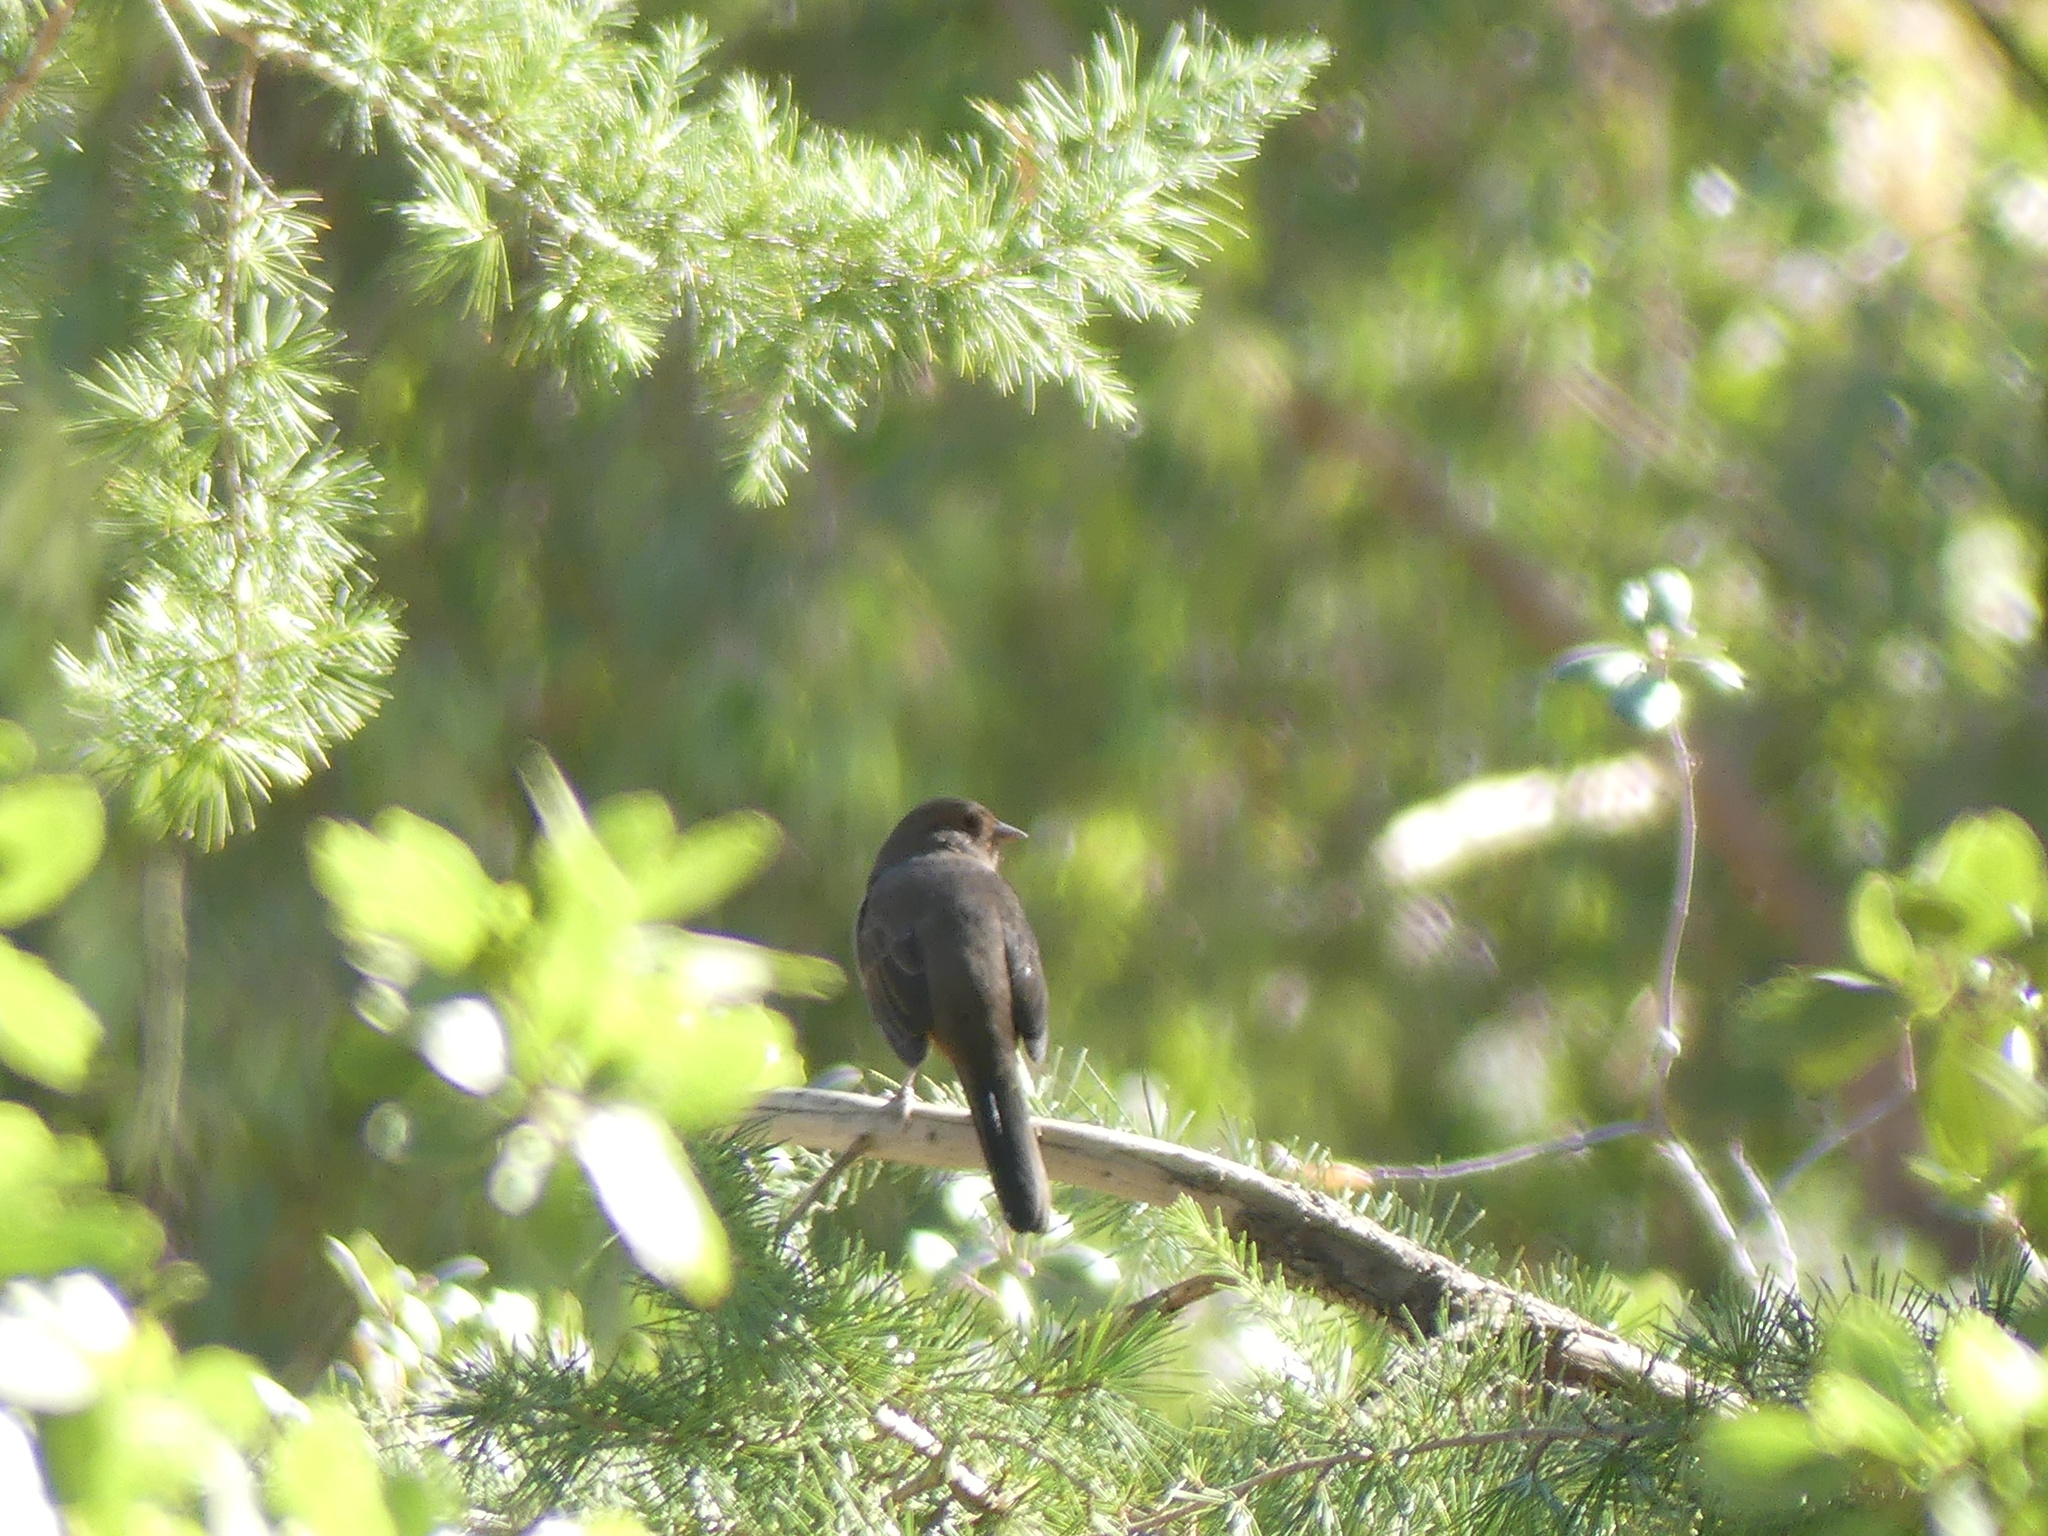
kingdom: Animalia
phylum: Chordata
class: Aves
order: Passeriformes
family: Passerellidae
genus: Melozone
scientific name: Melozone crissalis
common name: California towhee
